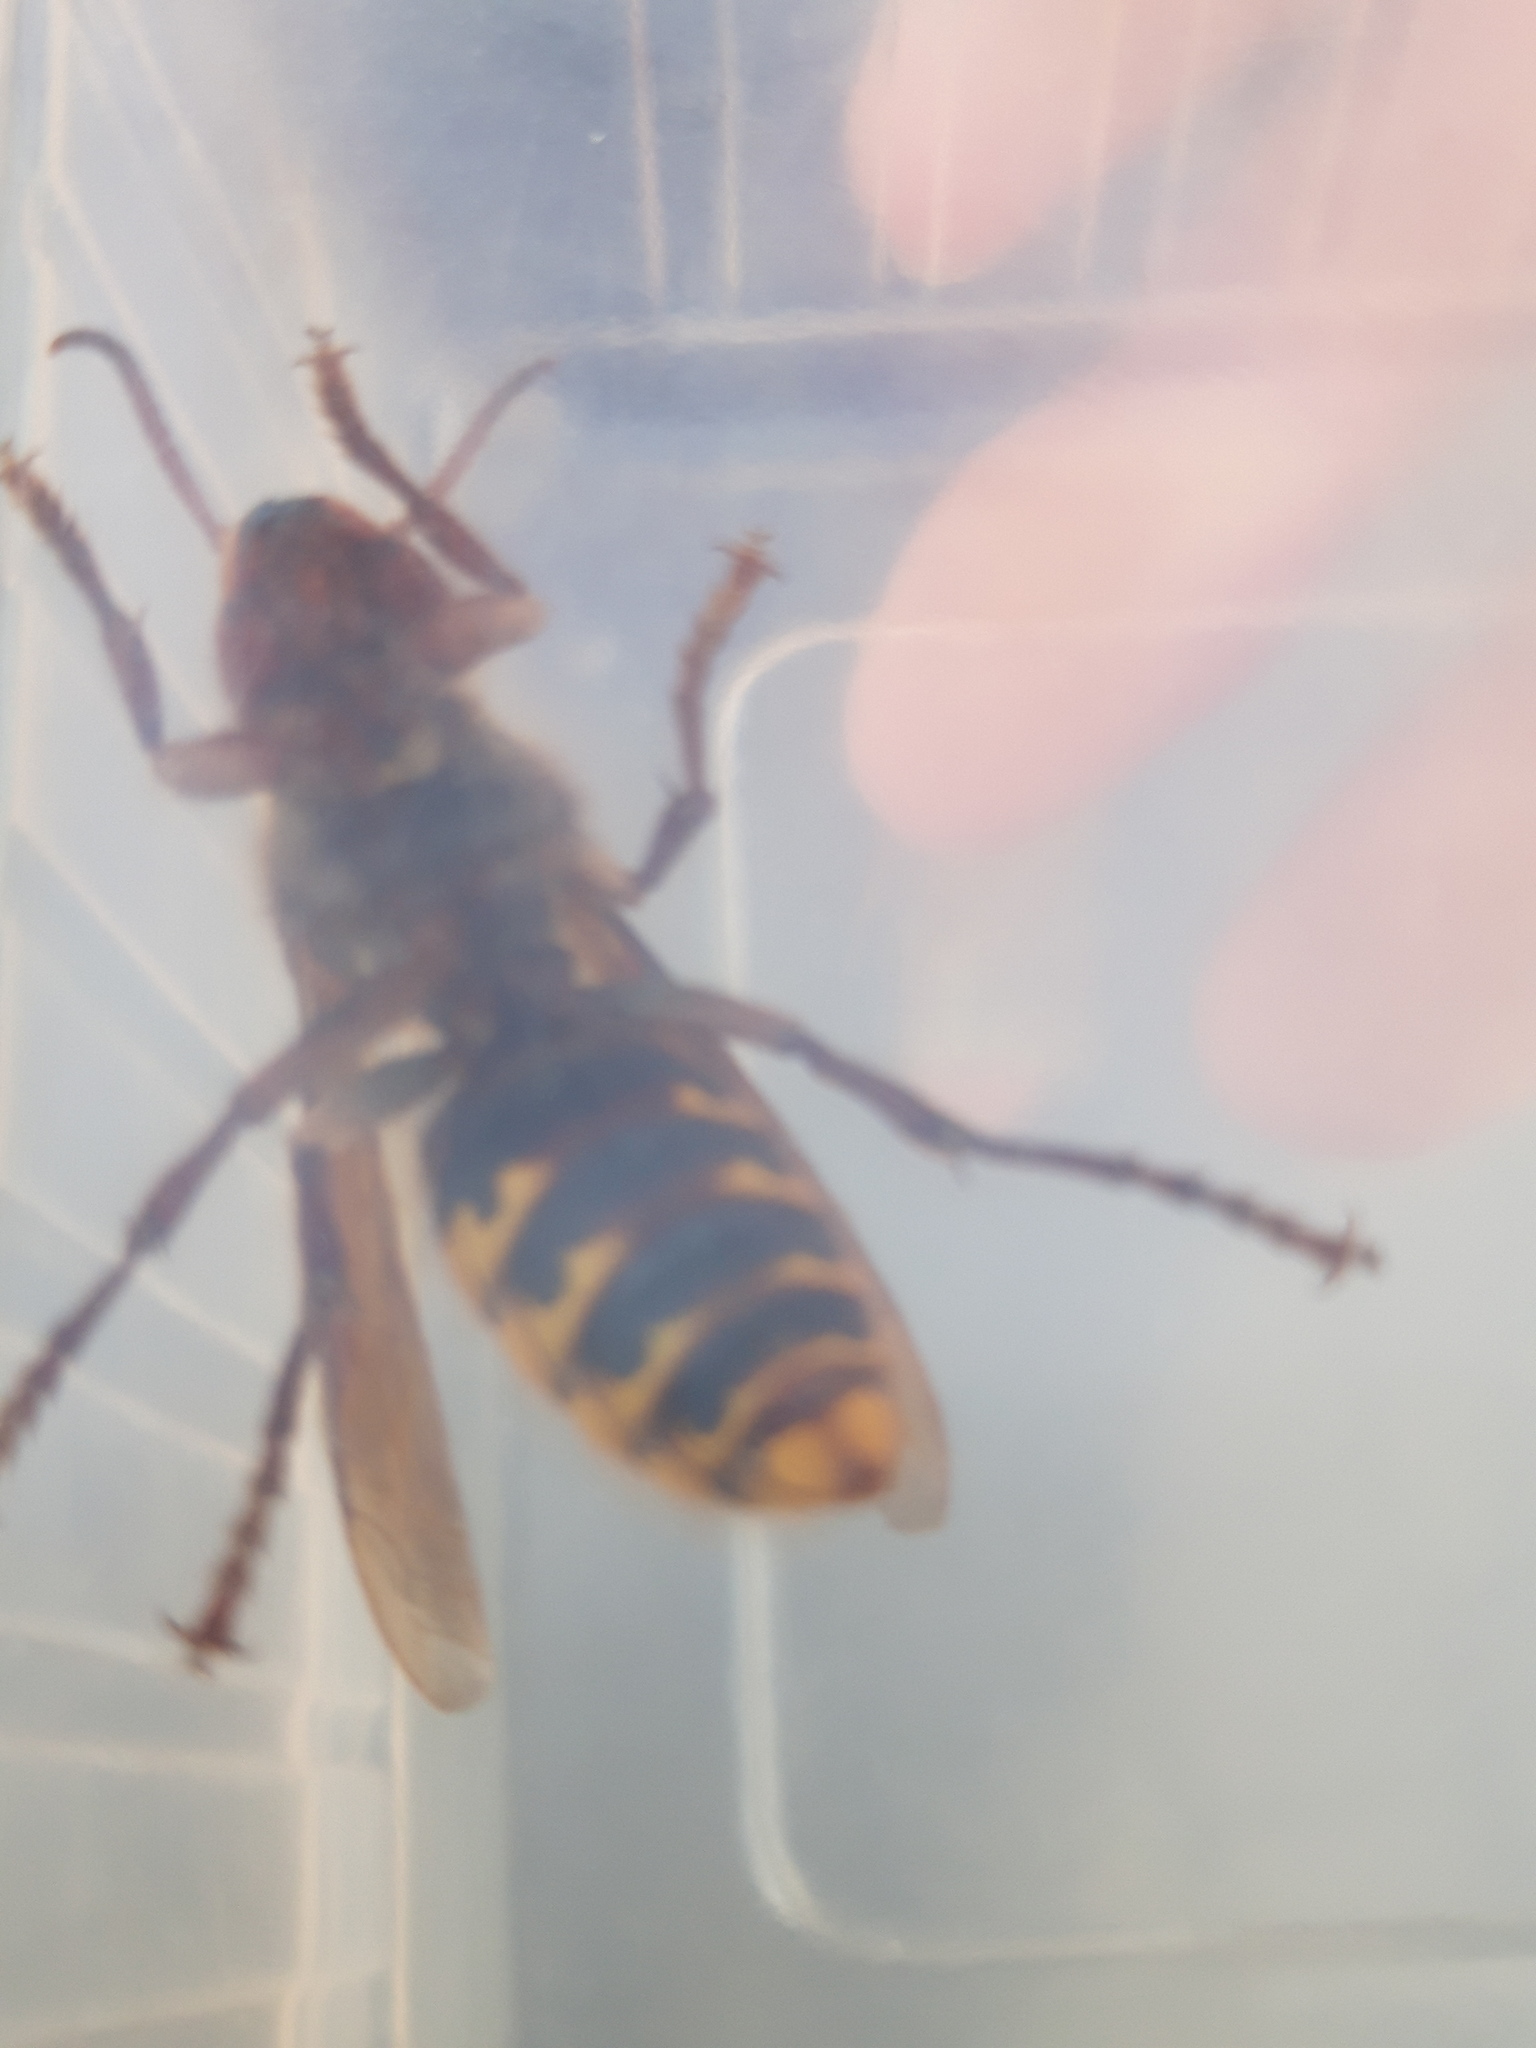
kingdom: Animalia
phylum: Arthropoda
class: Insecta
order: Hymenoptera
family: Vespidae
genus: Vespa
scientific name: Vespa crabro
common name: Hornet
